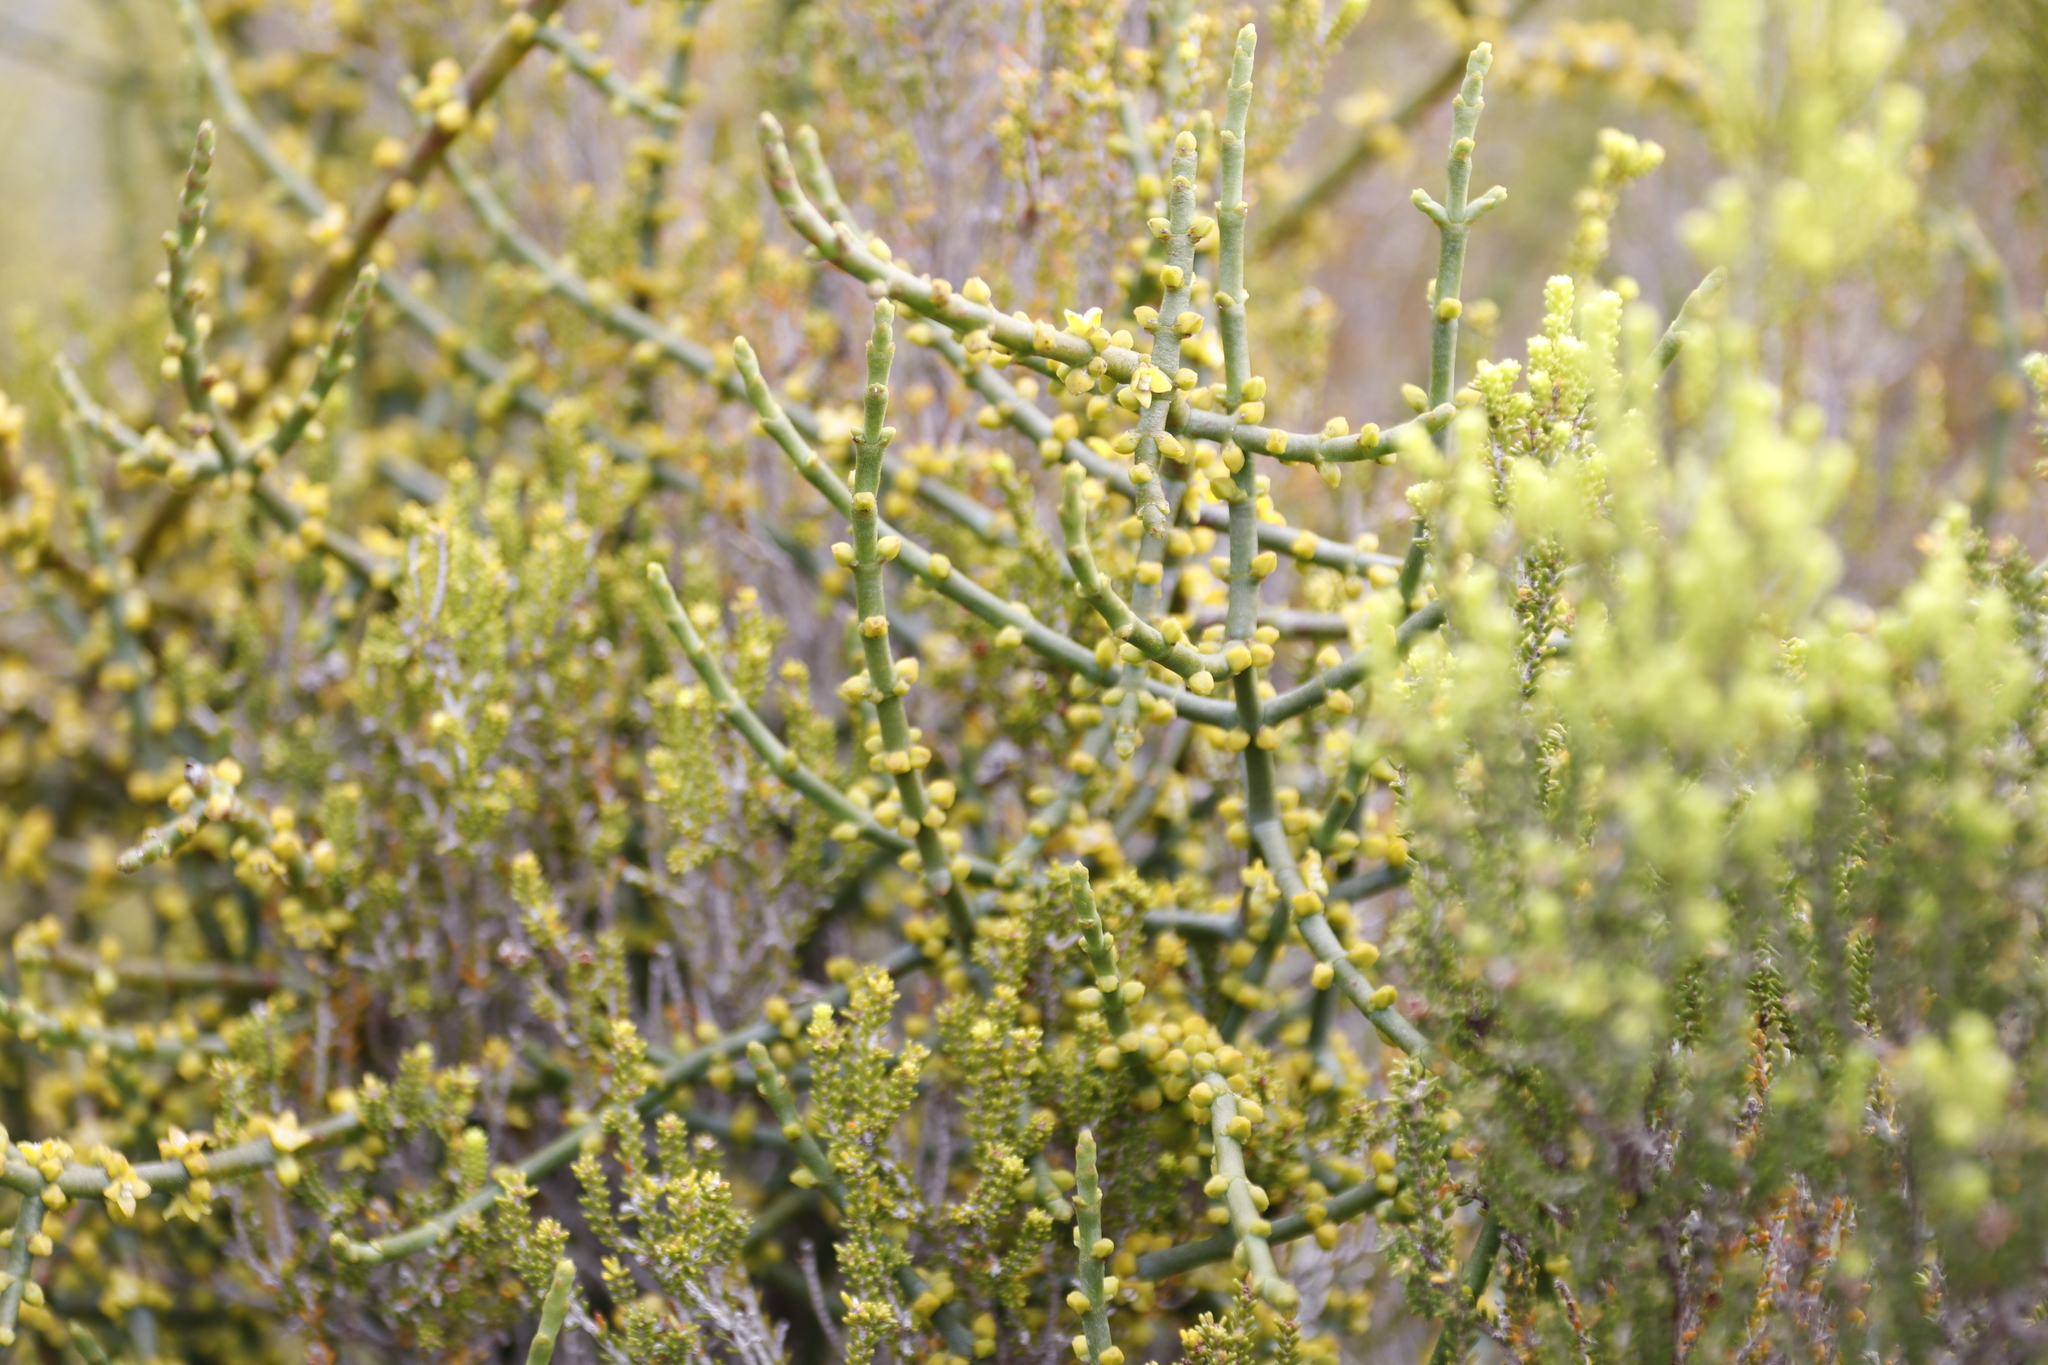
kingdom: Plantae
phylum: Tracheophyta
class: Magnoliopsida
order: Santalales
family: Viscaceae
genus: Viscum
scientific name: Viscum capense
